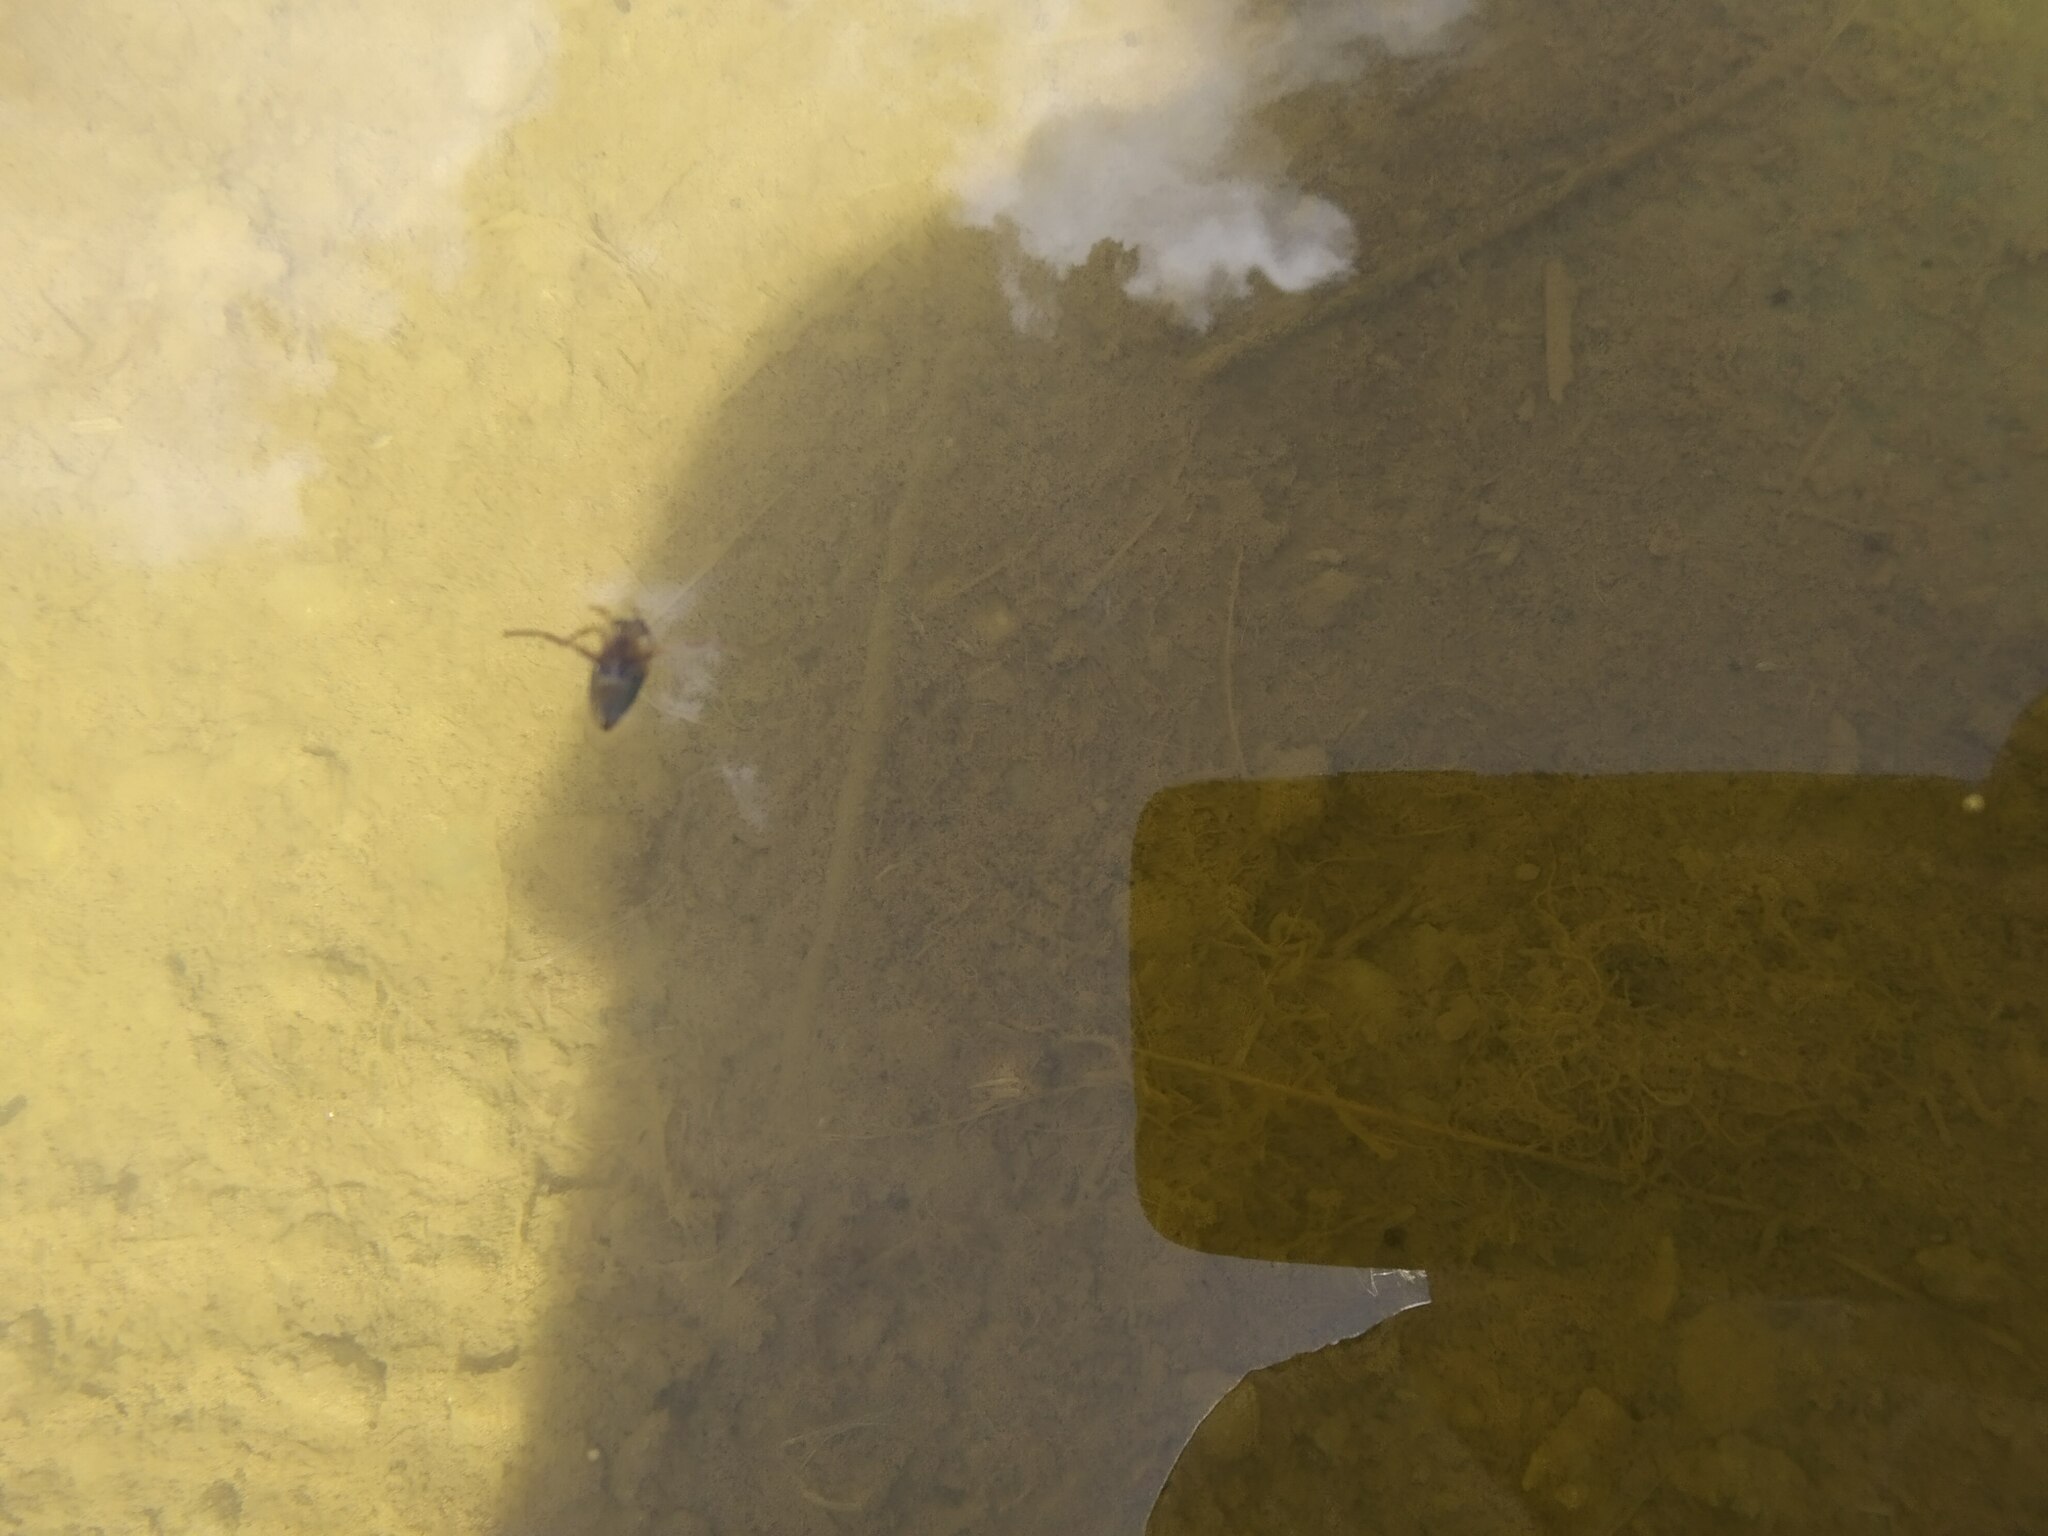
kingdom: Animalia
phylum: Arthropoda
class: Insecta
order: Hemiptera
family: Notonectidae
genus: Notonecta
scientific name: Notonecta
